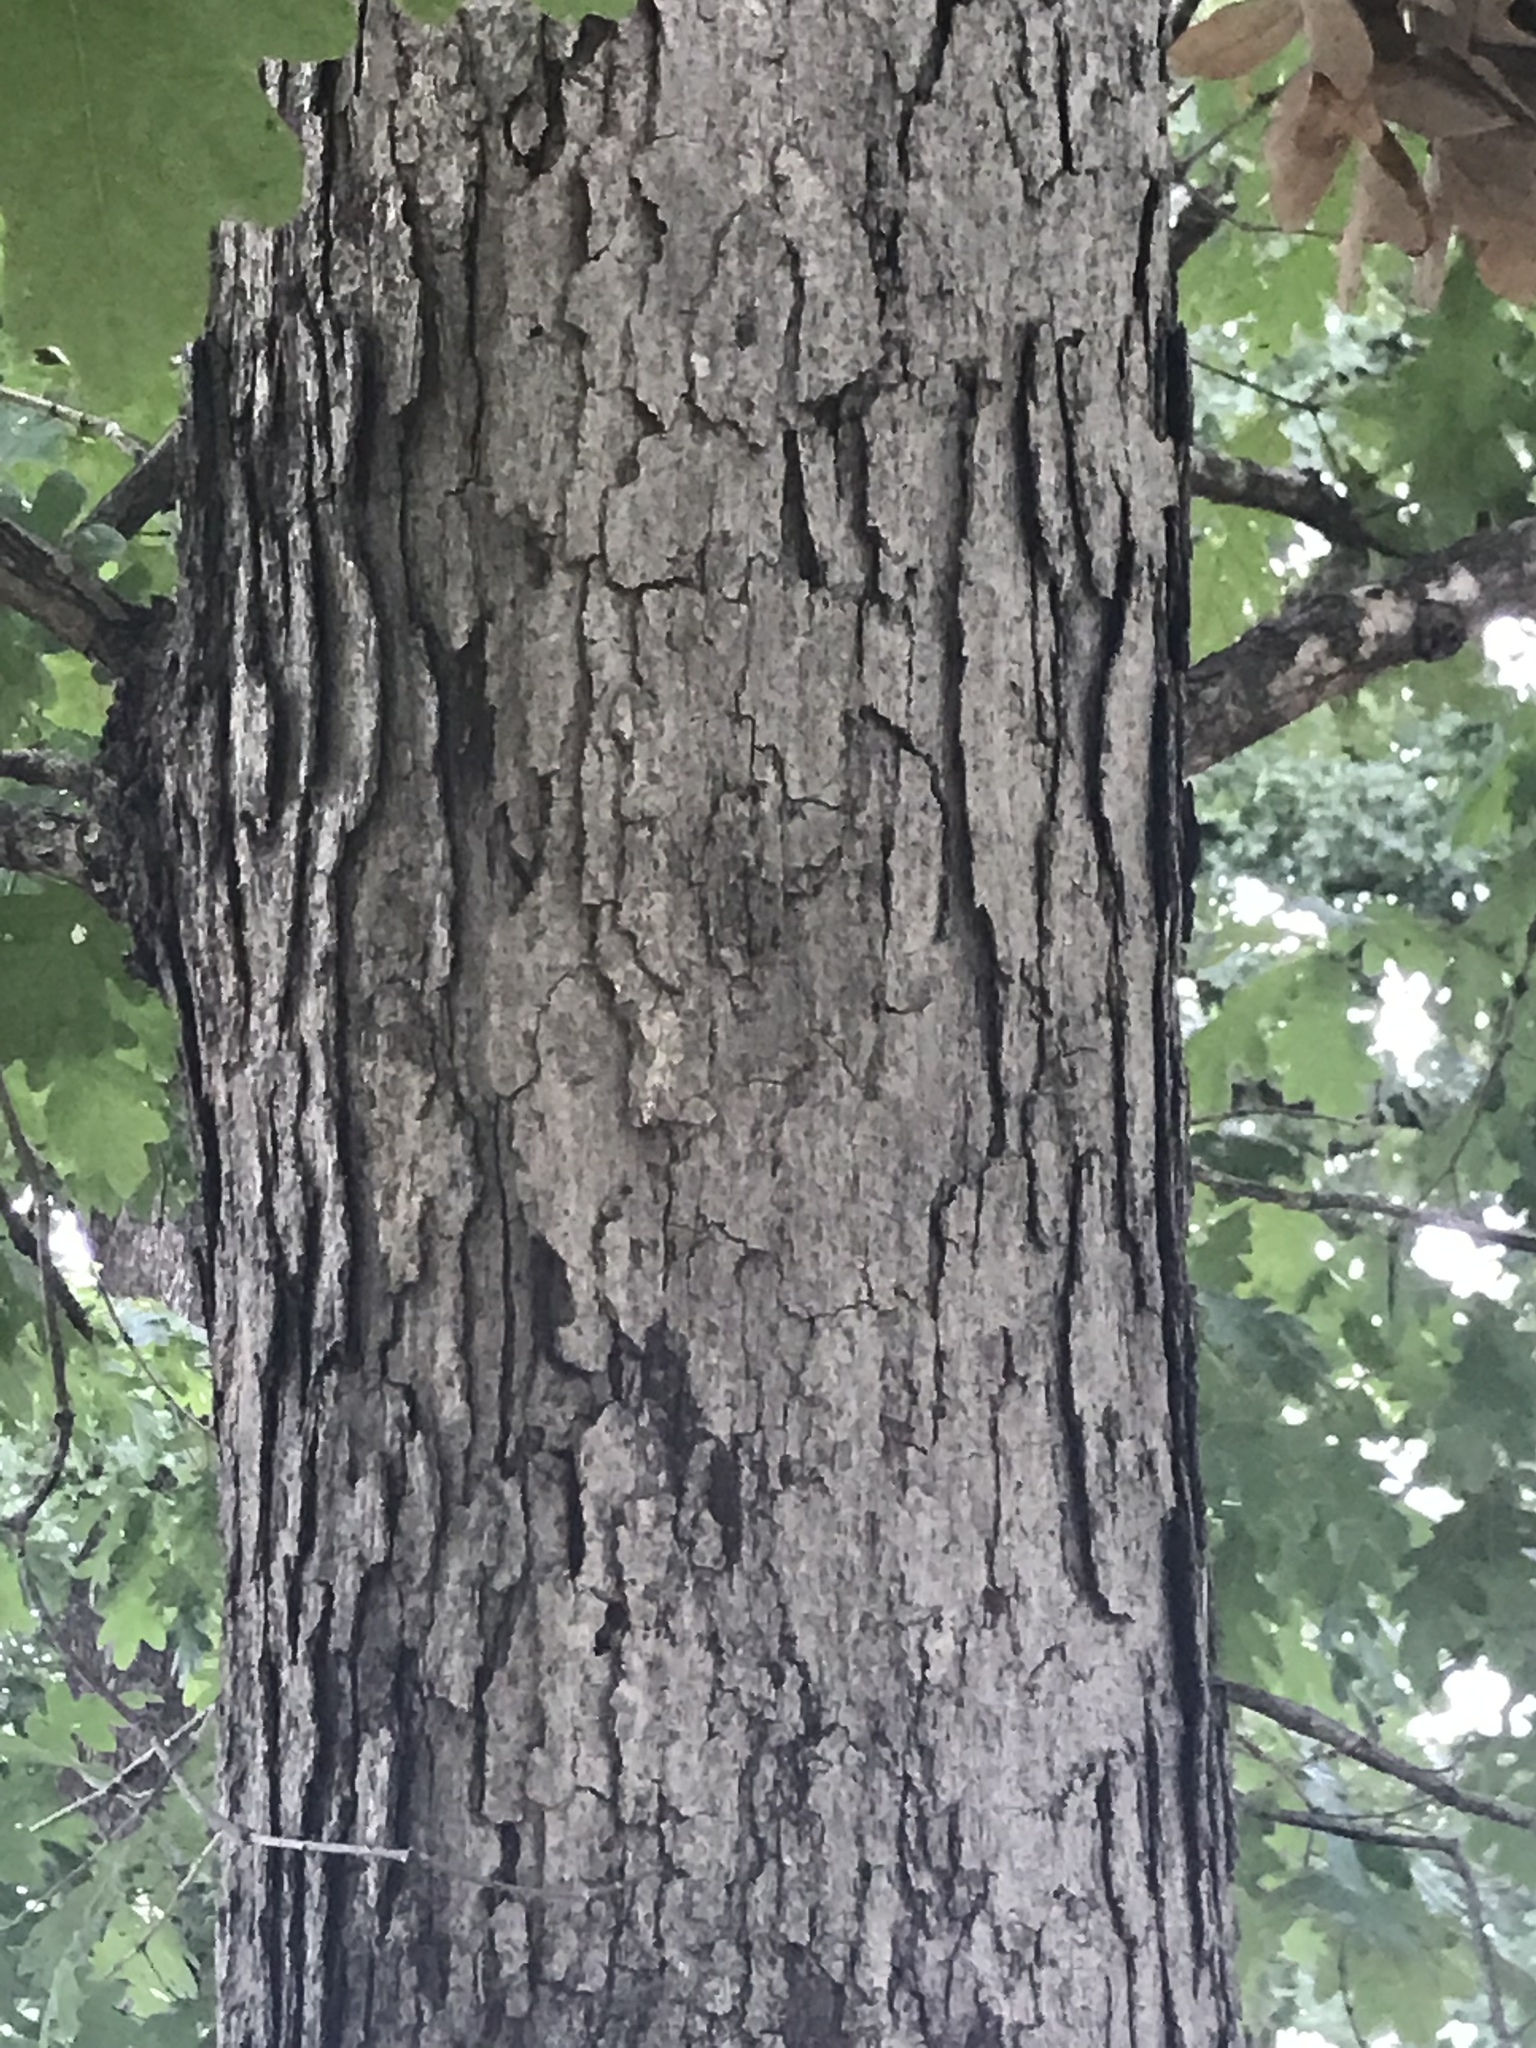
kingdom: Plantae
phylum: Tracheophyta
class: Magnoliopsida
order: Fagales
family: Fagaceae
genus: Quercus
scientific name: Quercus alba
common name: White oak
